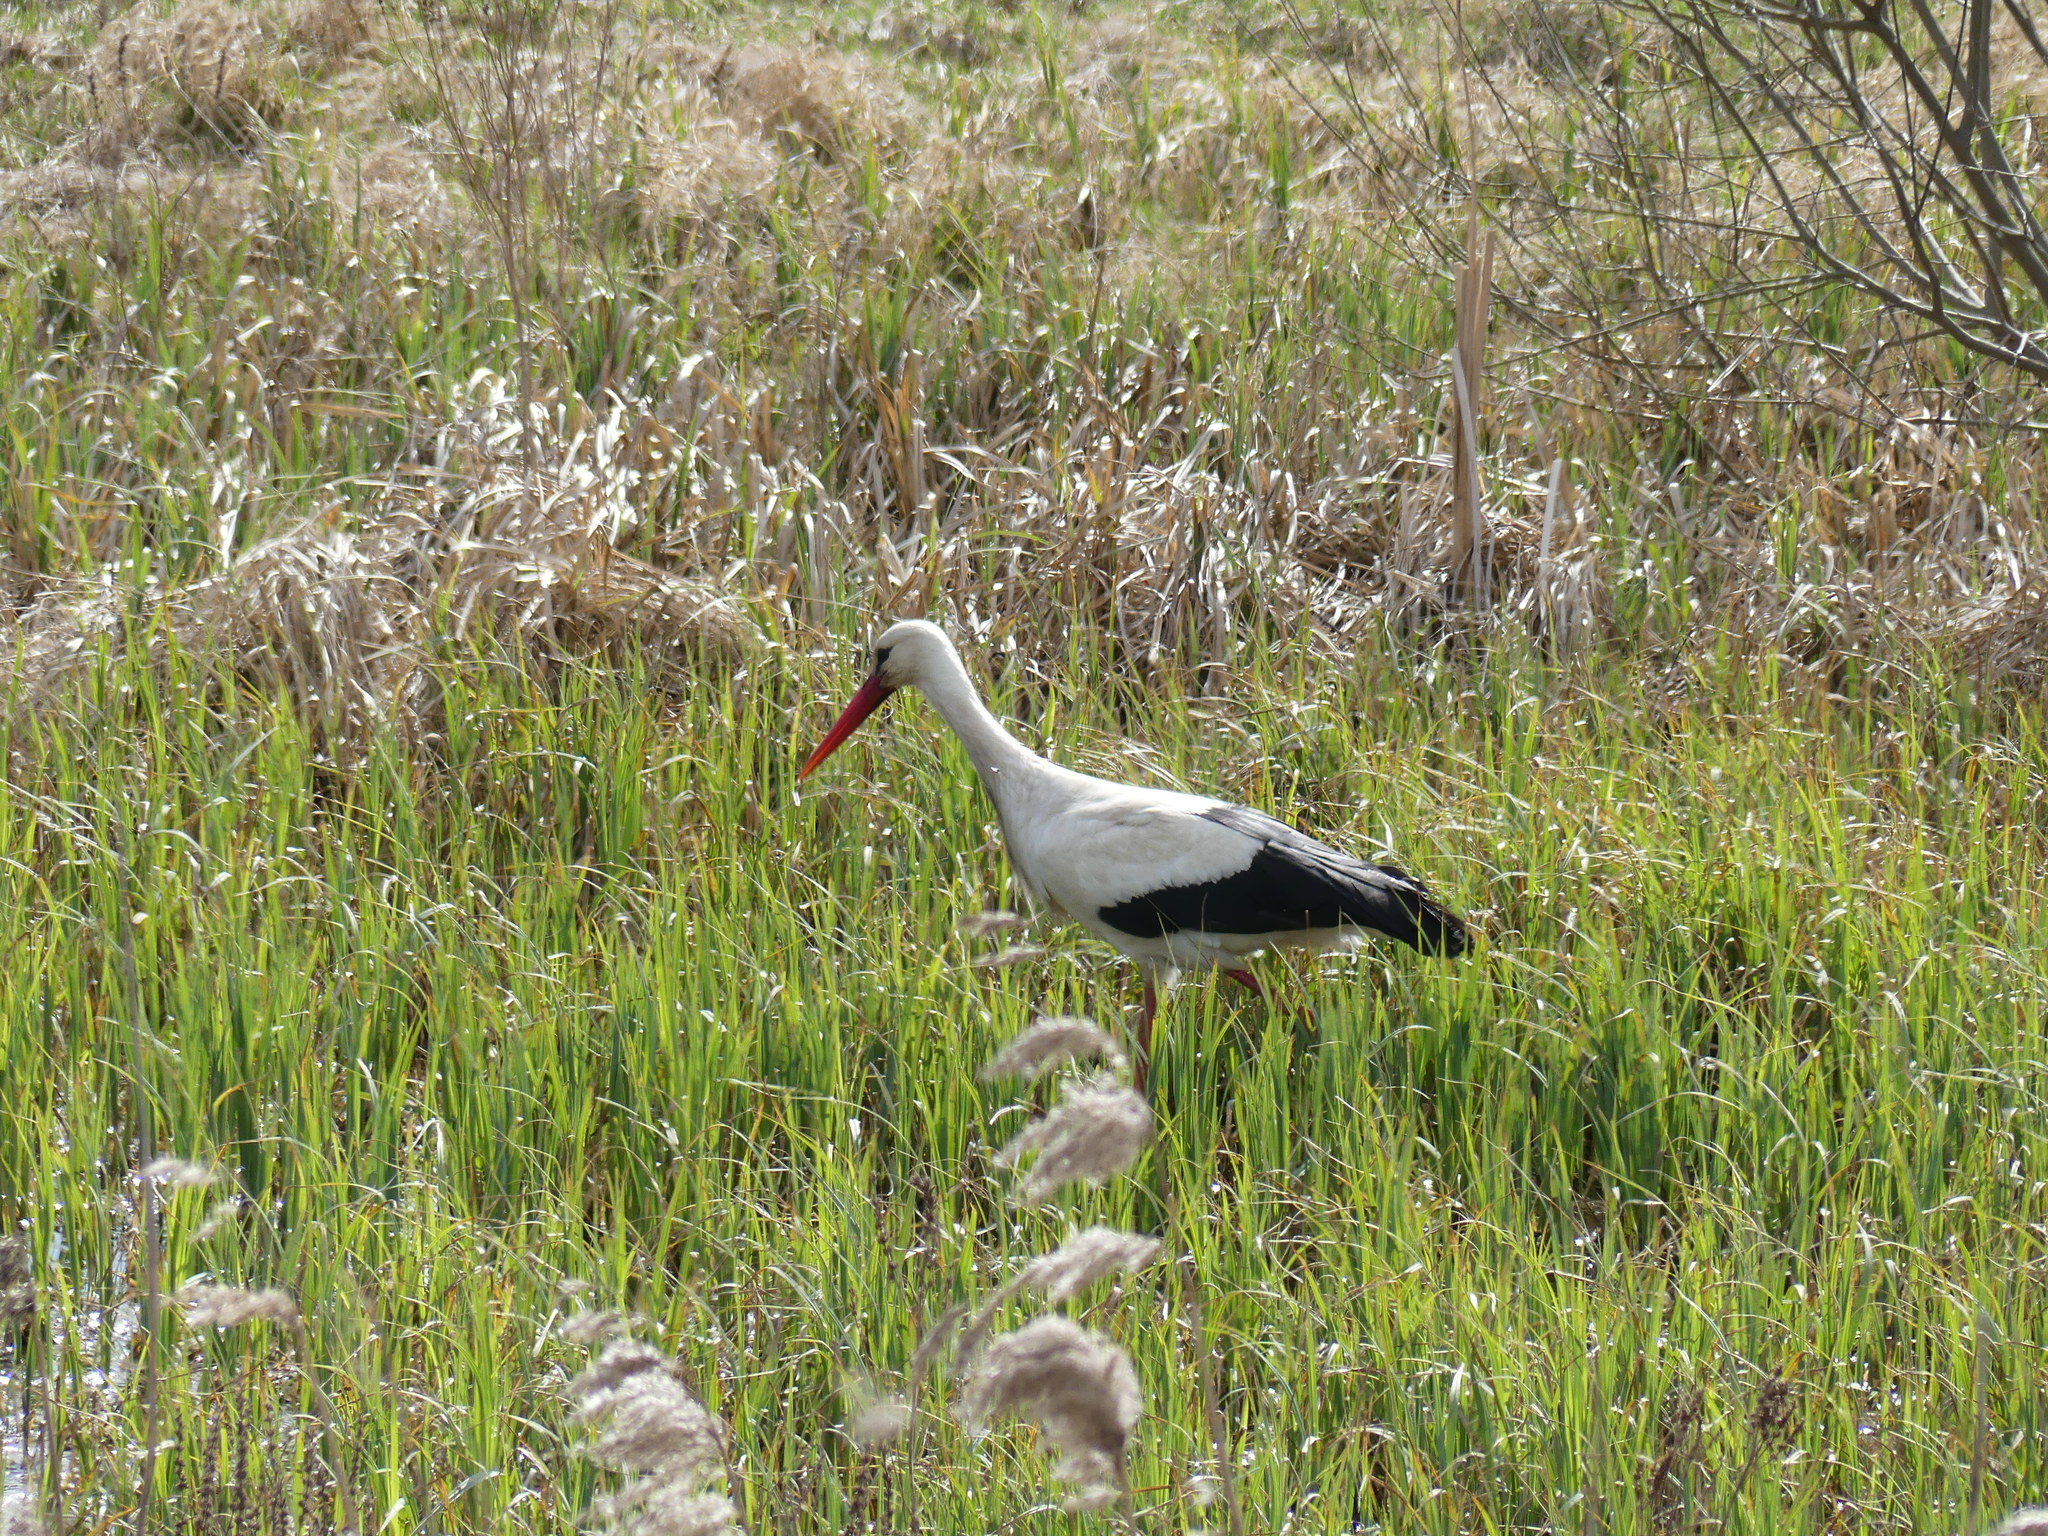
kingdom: Animalia
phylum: Chordata
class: Aves
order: Ciconiiformes
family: Ciconiidae
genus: Ciconia
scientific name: Ciconia ciconia
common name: White stork
